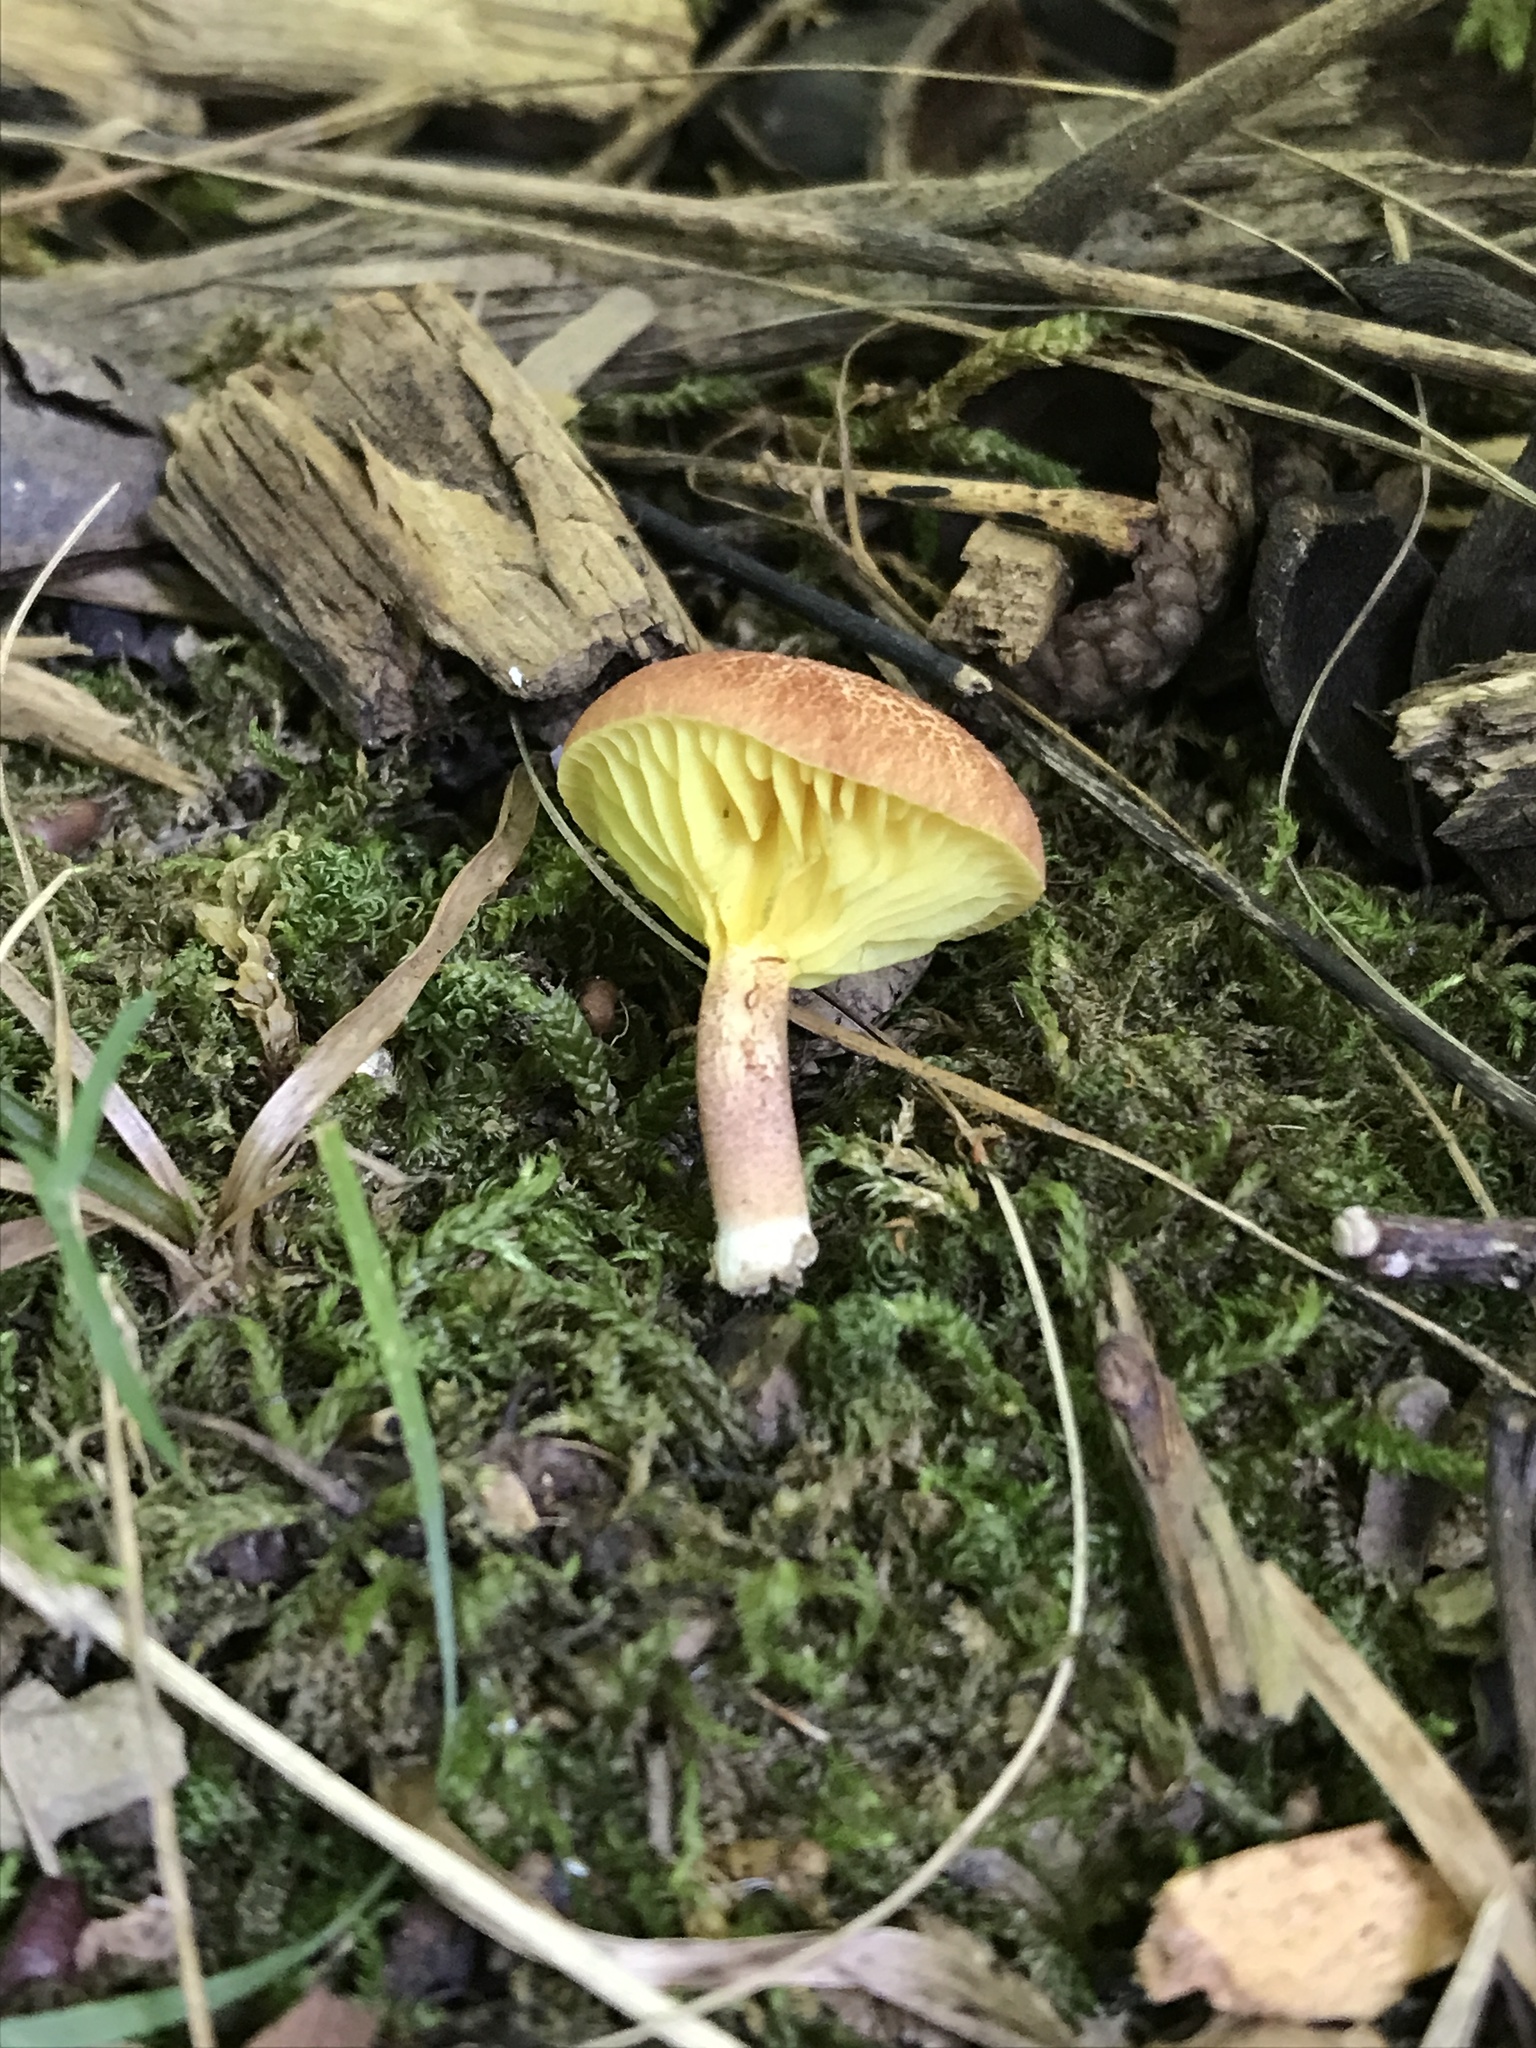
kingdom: Fungi
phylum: Basidiomycota
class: Agaricomycetes
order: Boletales
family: Boletaceae
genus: Phylloporus
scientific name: Phylloporus leucomycelinus
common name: Gilled bolete
